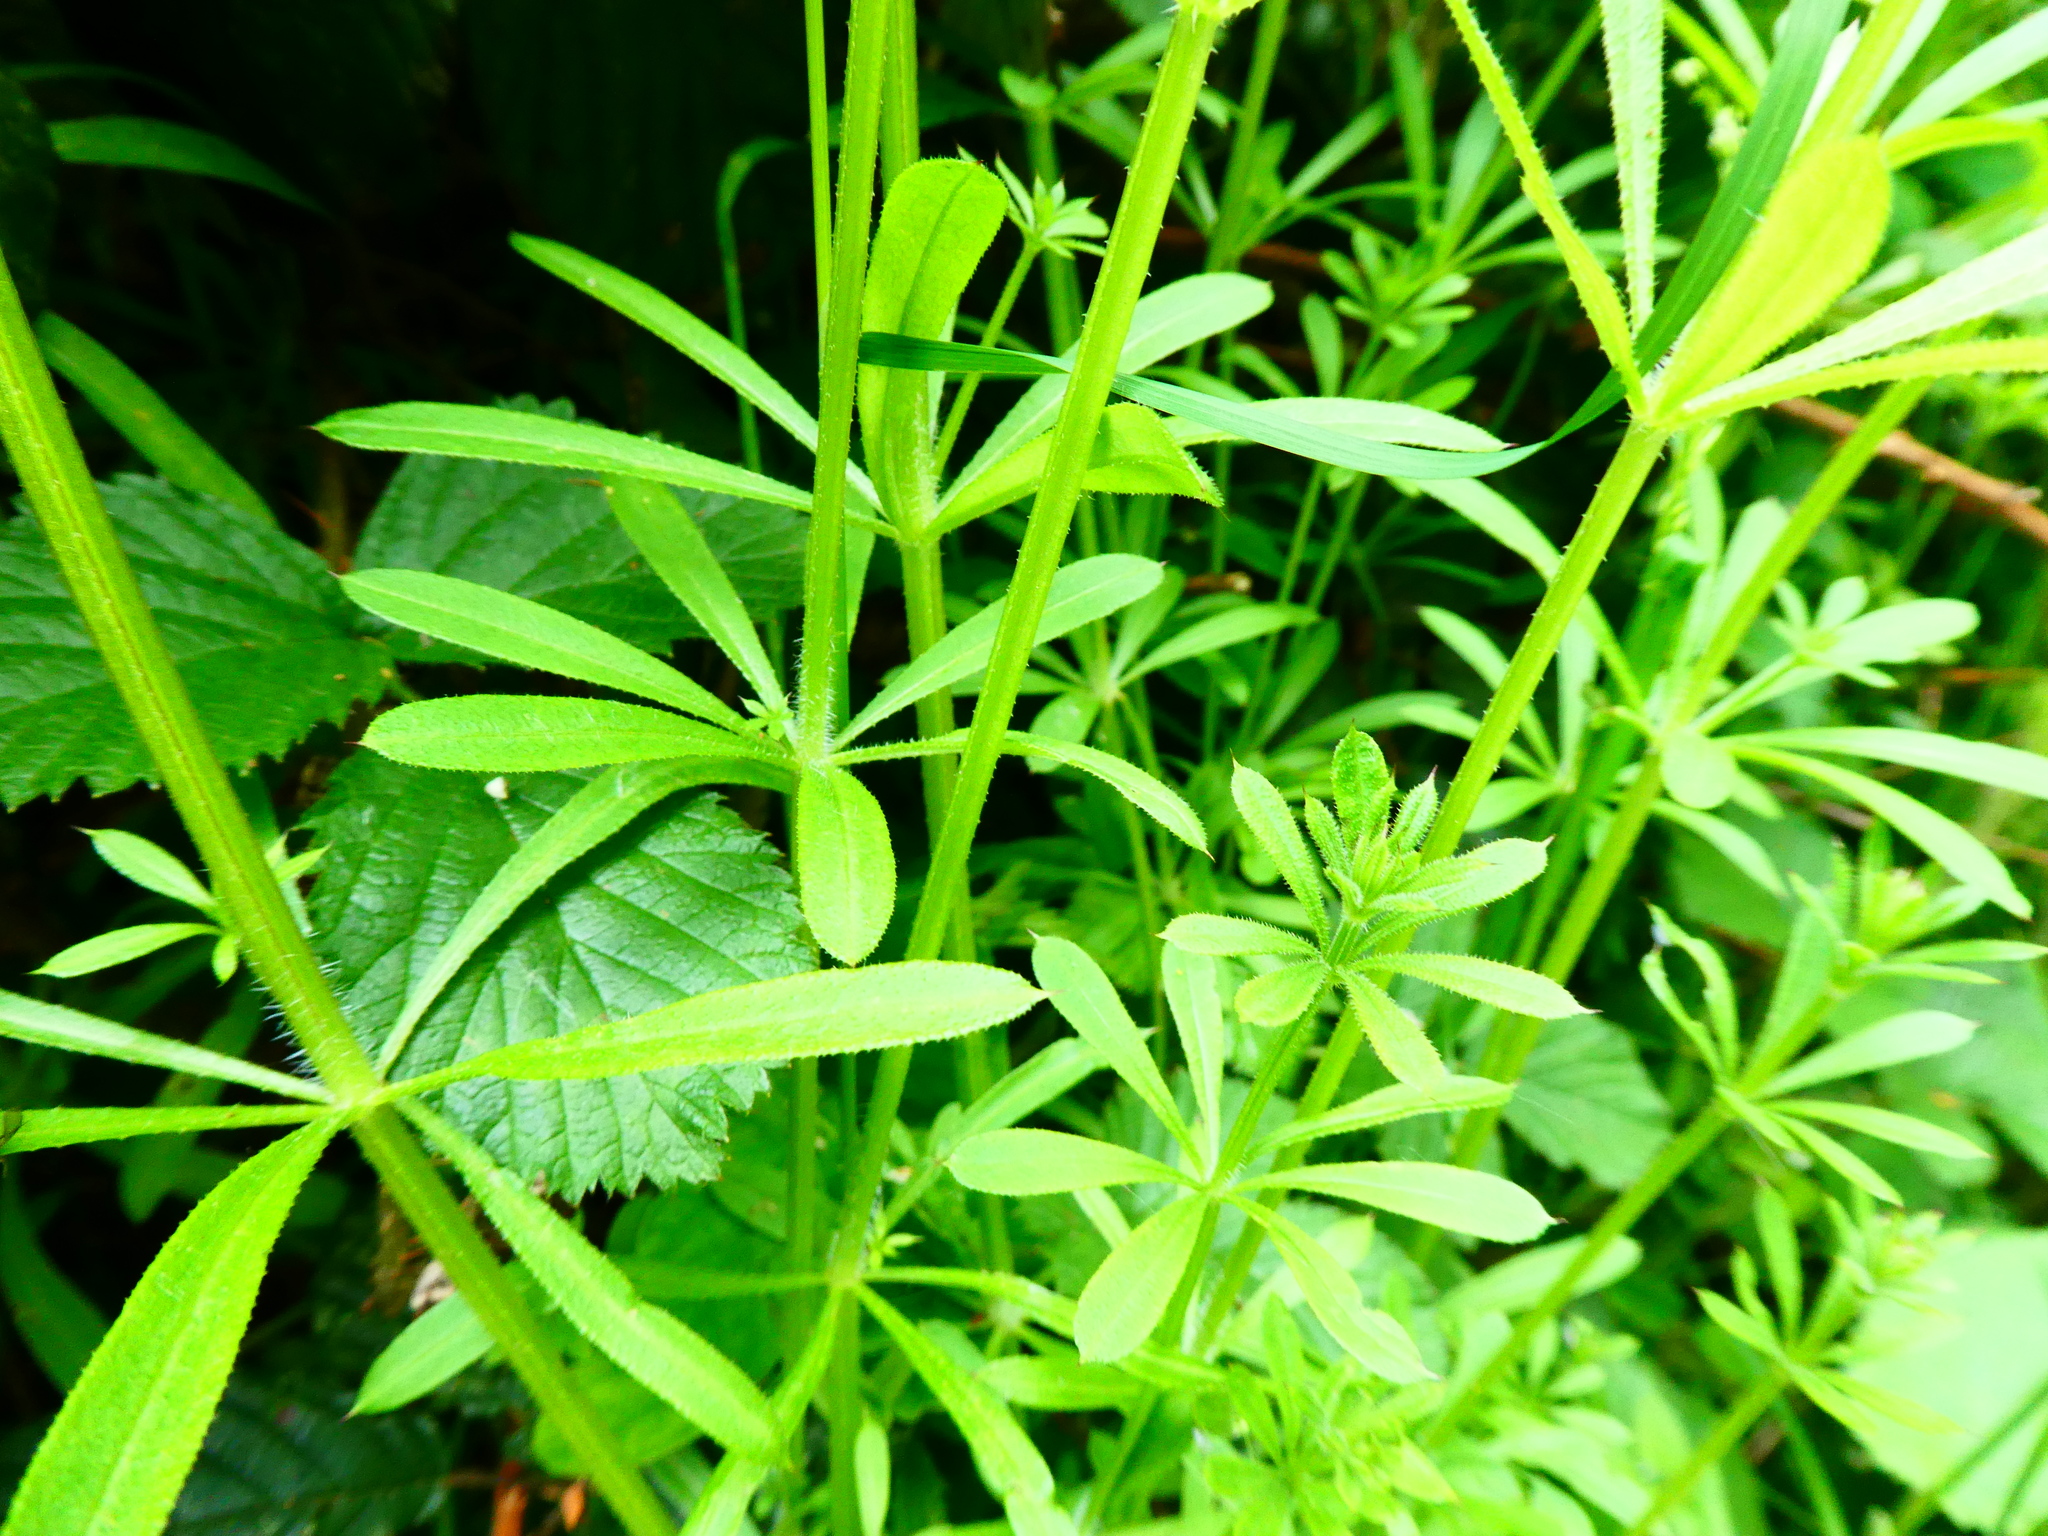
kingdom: Plantae
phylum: Tracheophyta
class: Magnoliopsida
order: Gentianales
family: Rubiaceae
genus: Galium
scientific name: Galium aparine
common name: Cleavers
